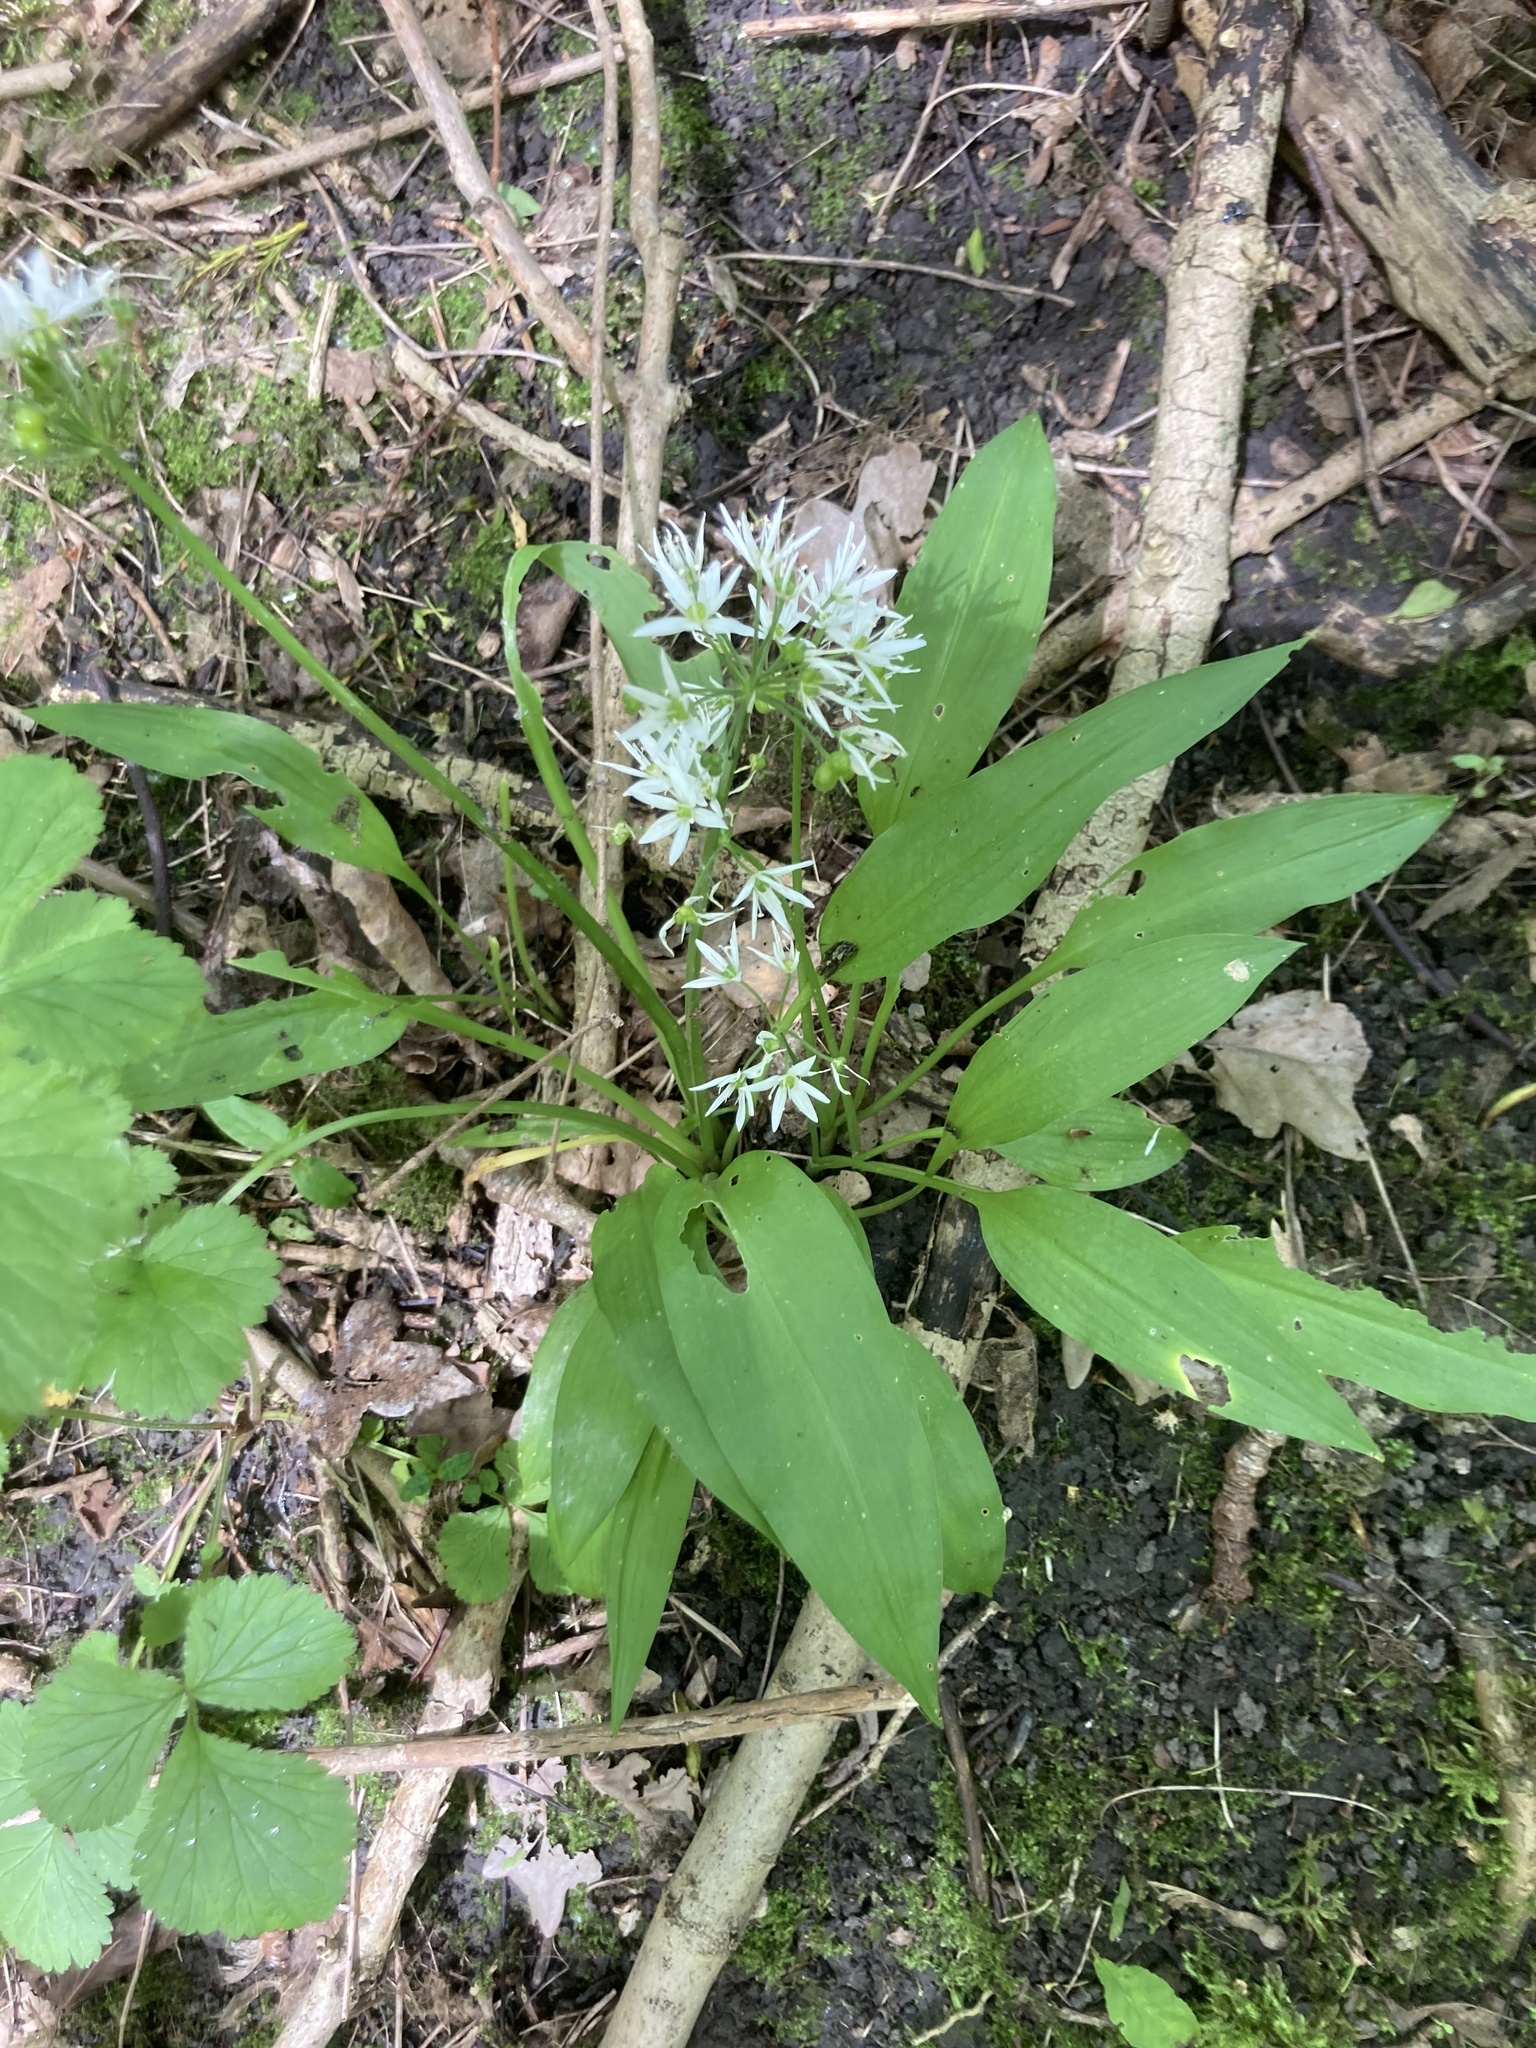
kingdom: Plantae
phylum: Tracheophyta
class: Liliopsida
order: Asparagales
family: Amaryllidaceae
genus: Allium
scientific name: Allium ursinum
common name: Ramsons
